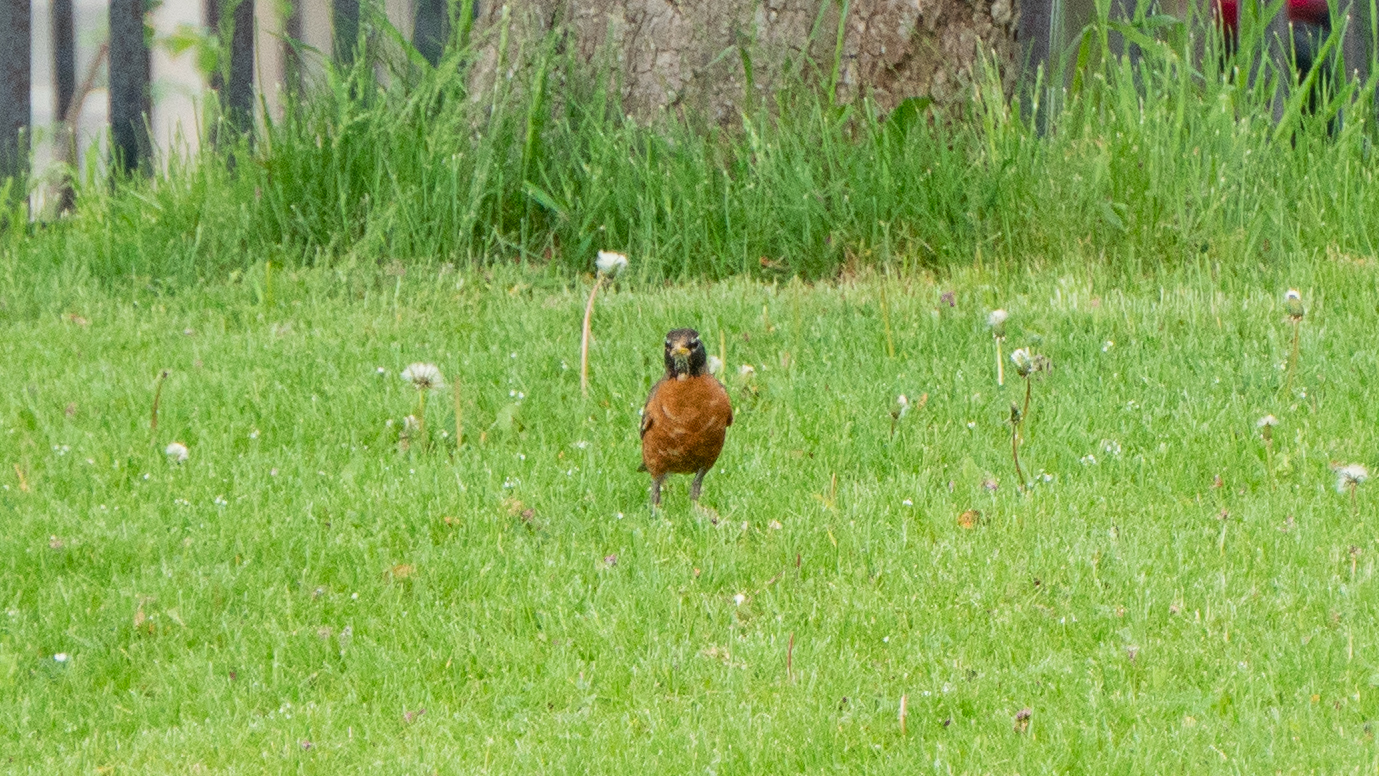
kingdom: Animalia
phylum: Chordata
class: Aves
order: Passeriformes
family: Turdidae
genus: Turdus
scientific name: Turdus migratorius
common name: American robin
